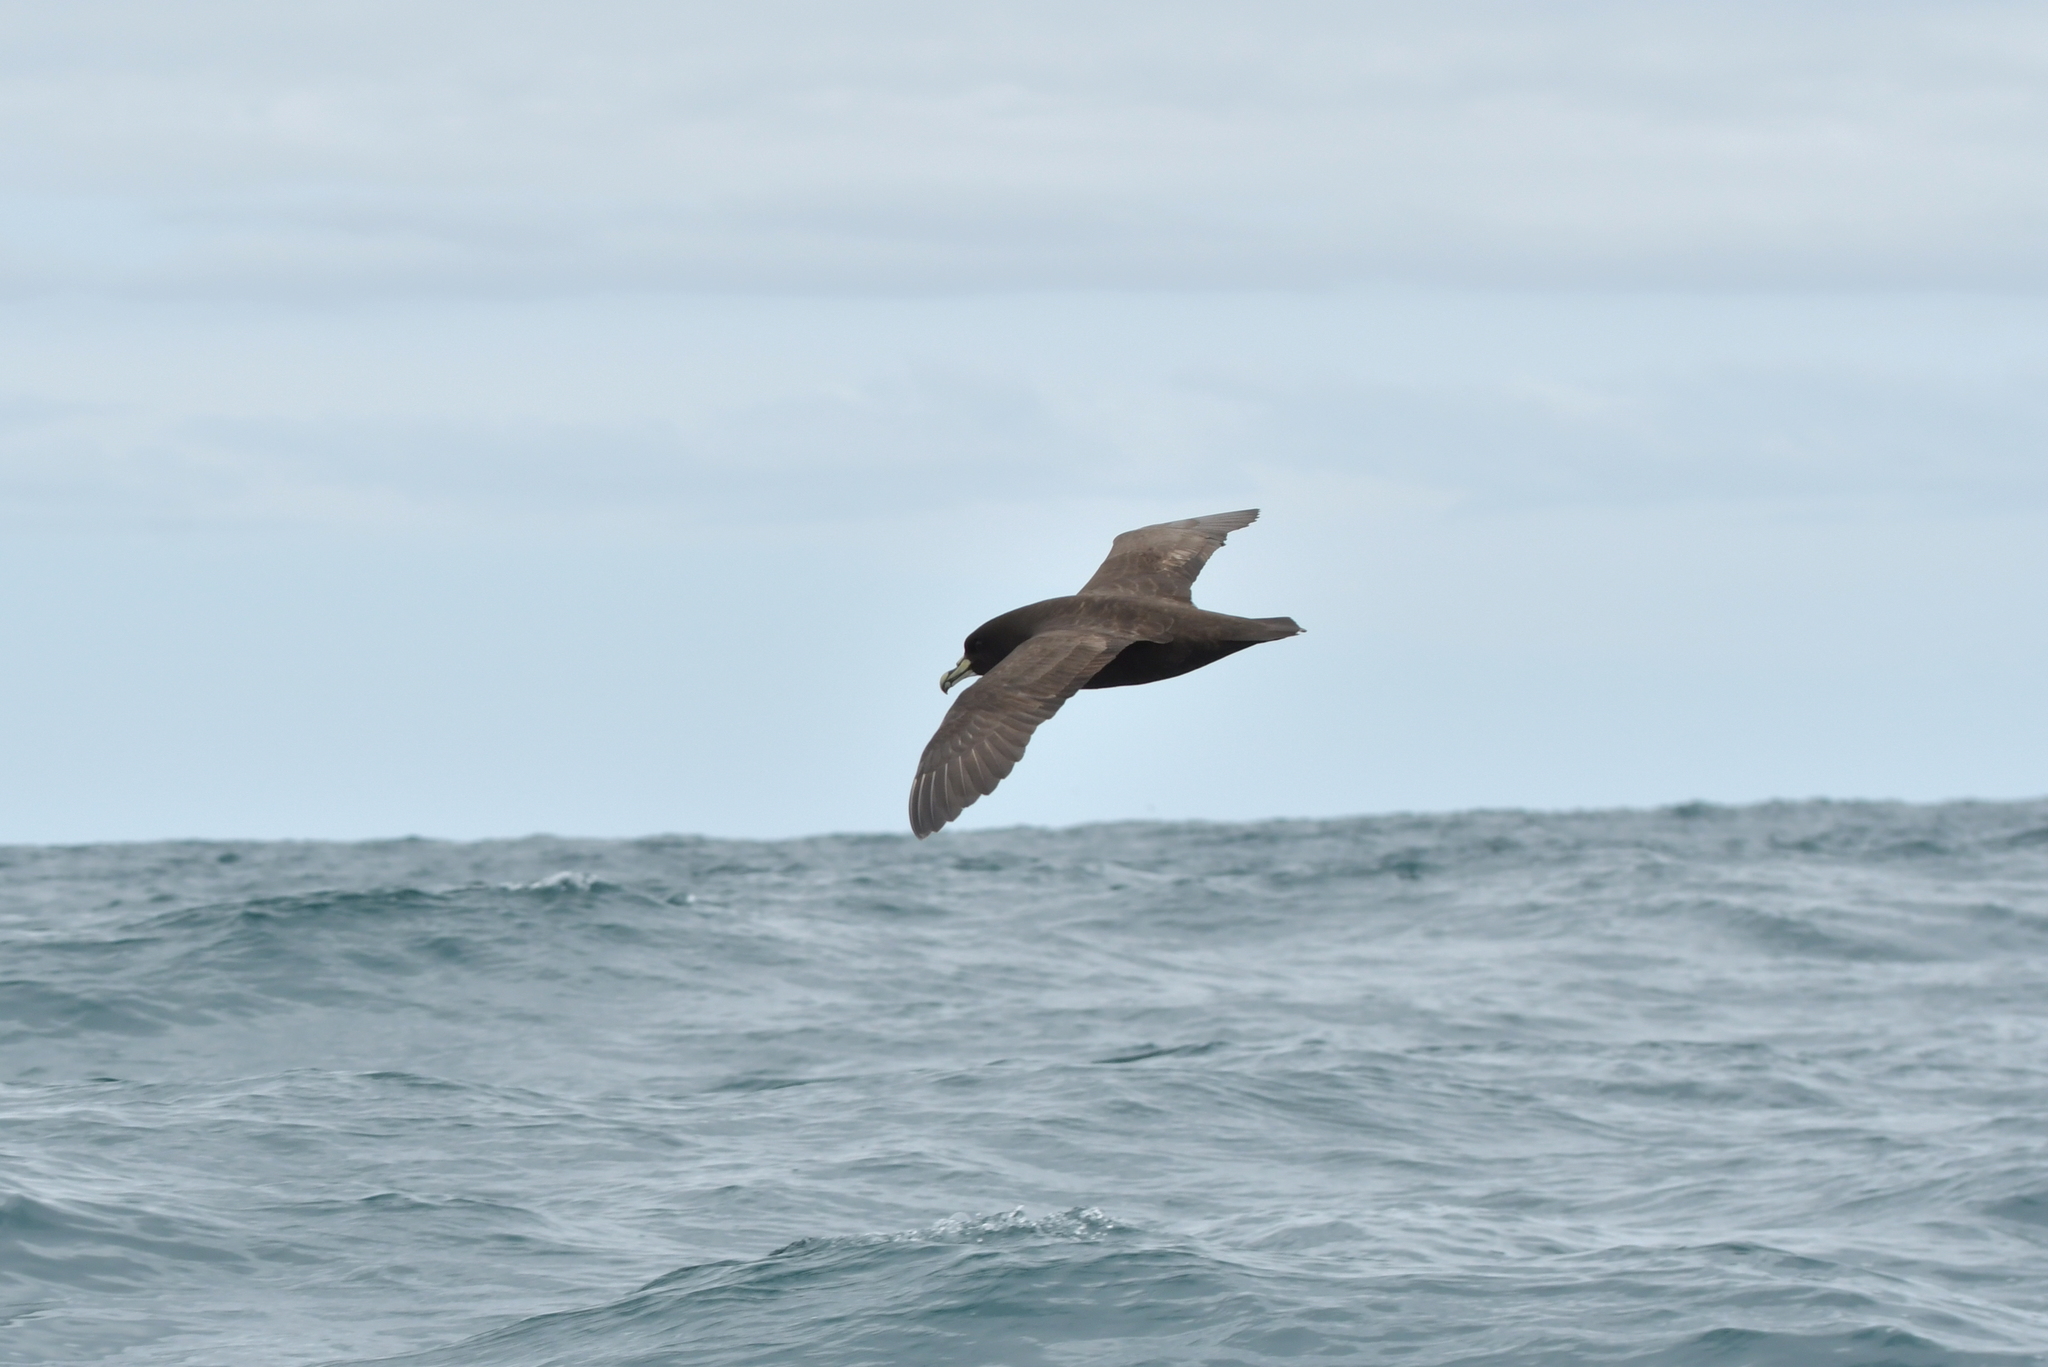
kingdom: Animalia
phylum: Chordata
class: Aves
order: Procellariiformes
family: Procellariidae
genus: Procellaria
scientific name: Procellaria aequinoctialis
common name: White-chinned petrel
